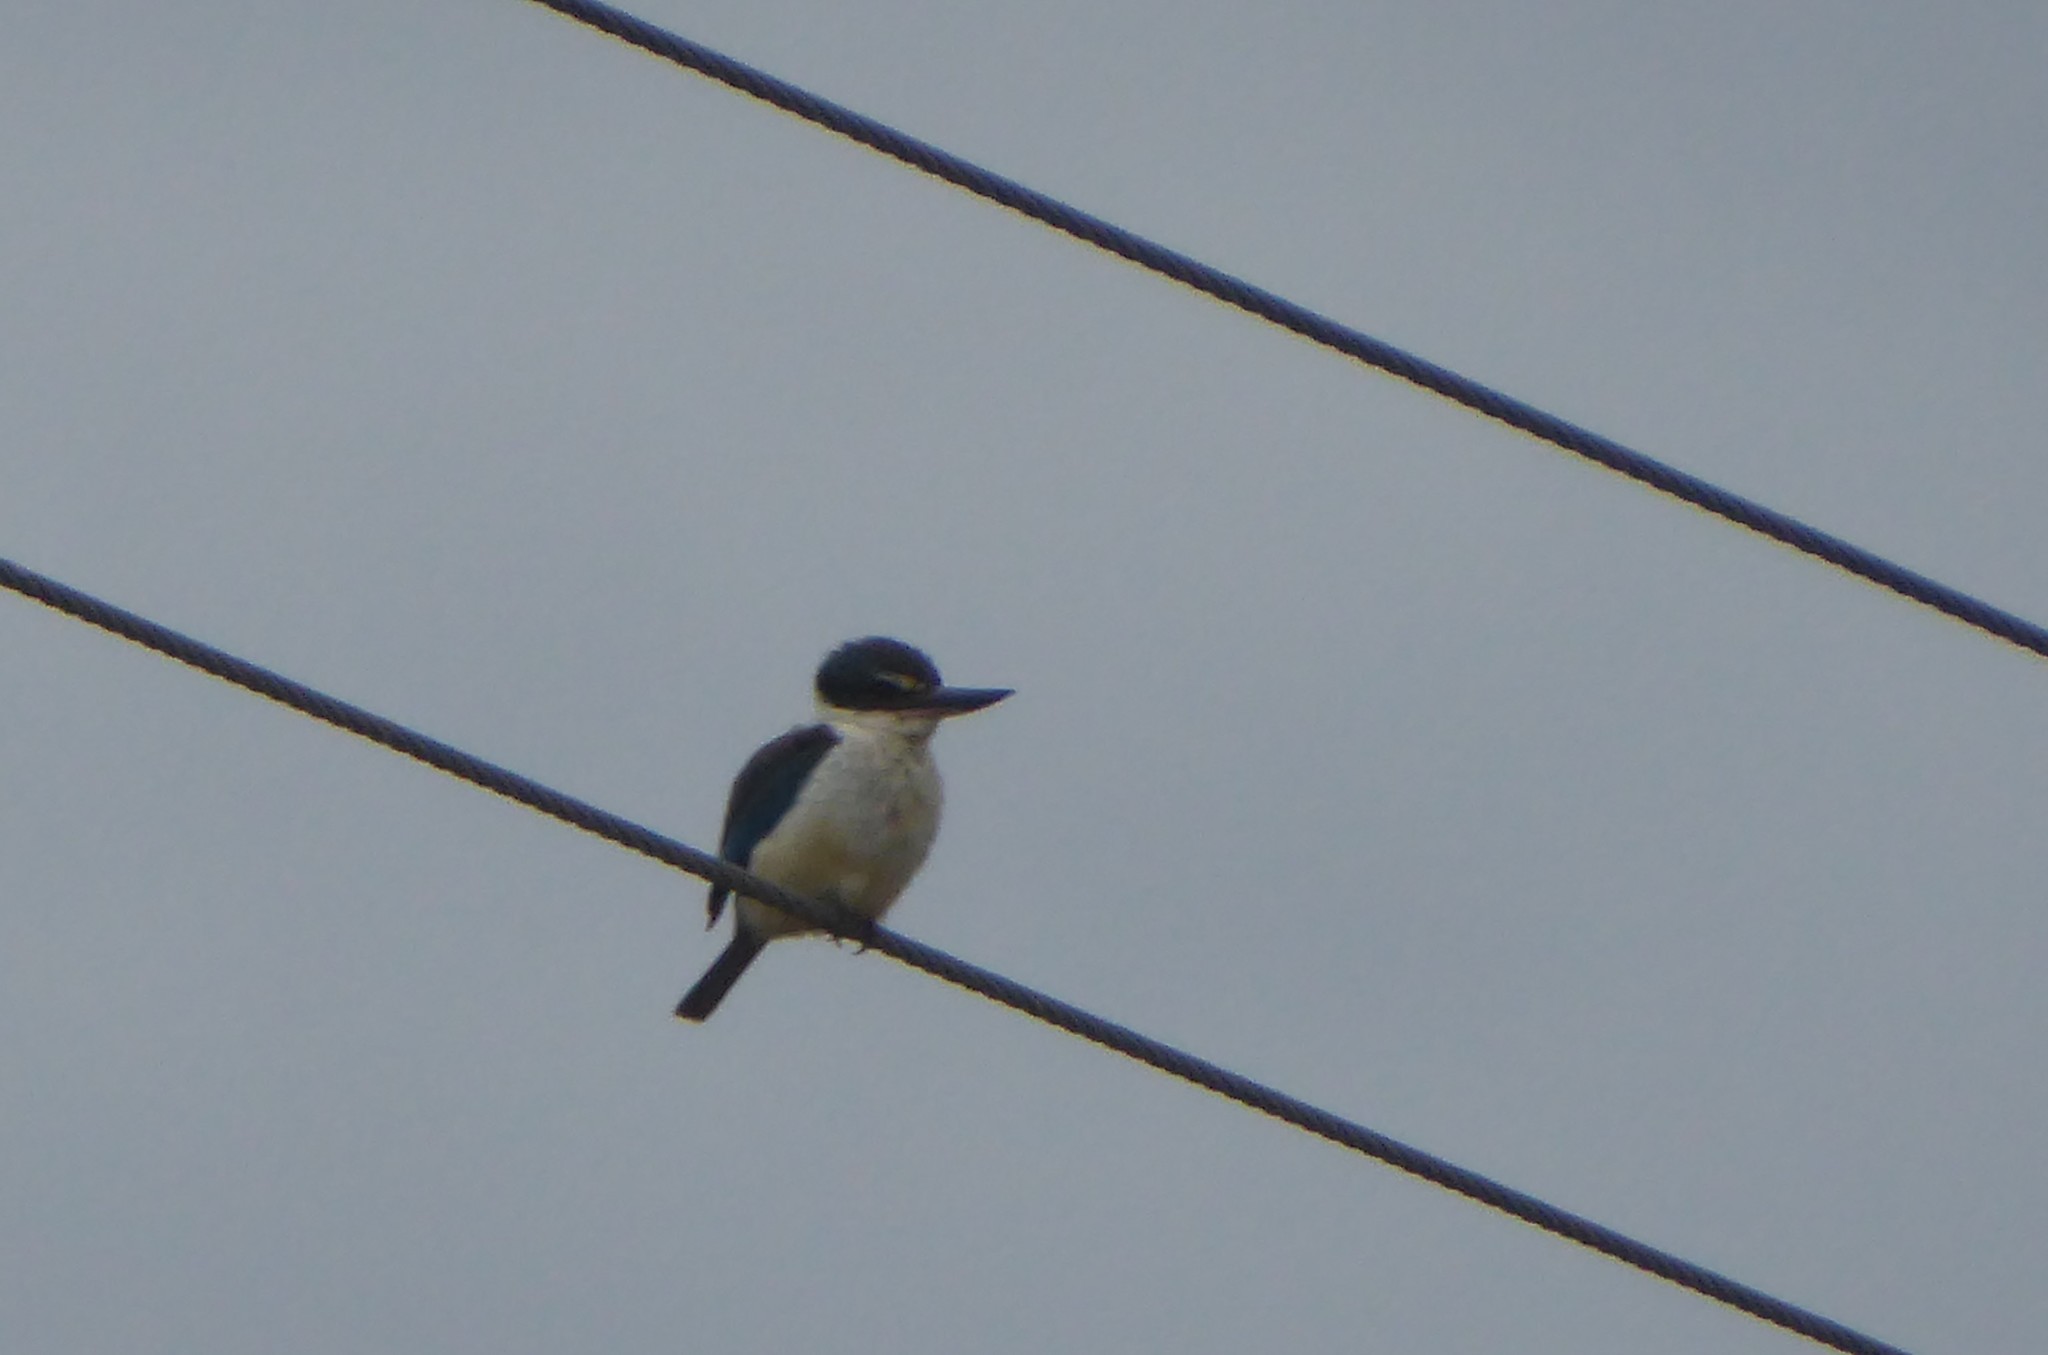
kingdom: Animalia
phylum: Chordata
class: Aves
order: Coraciiformes
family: Alcedinidae
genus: Todiramphus
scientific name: Todiramphus sanctus
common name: Sacred kingfisher
